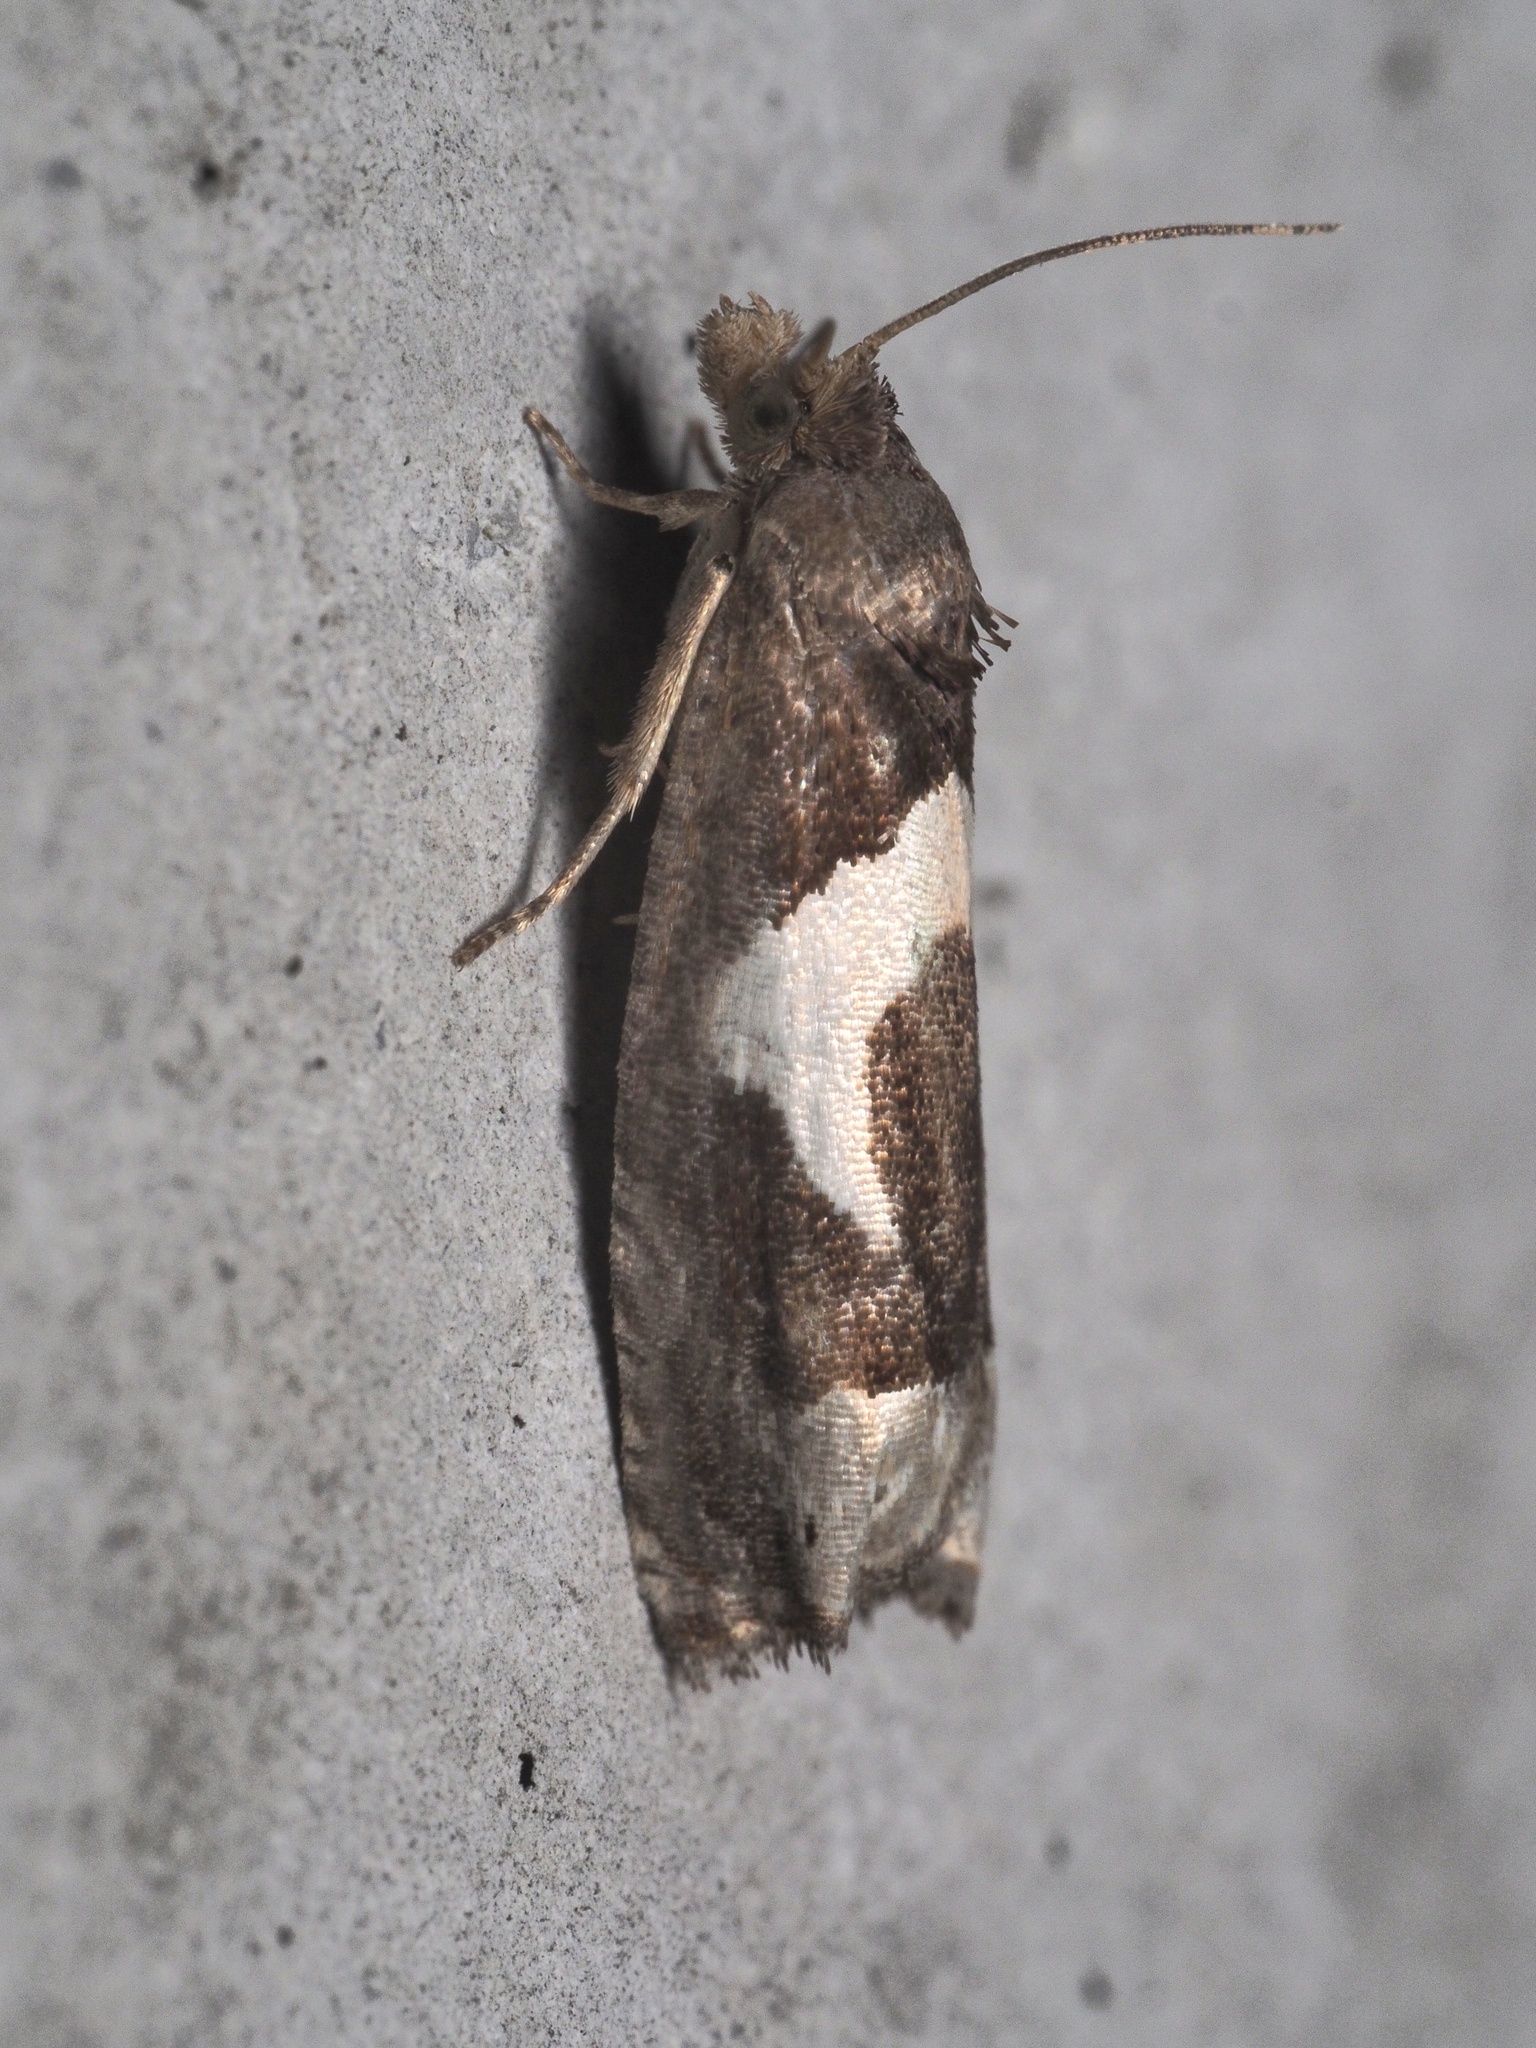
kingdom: Animalia
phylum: Arthropoda
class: Insecta
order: Lepidoptera
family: Tortricidae
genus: Epiblema
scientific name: Epiblema foenella
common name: White-foot bell
